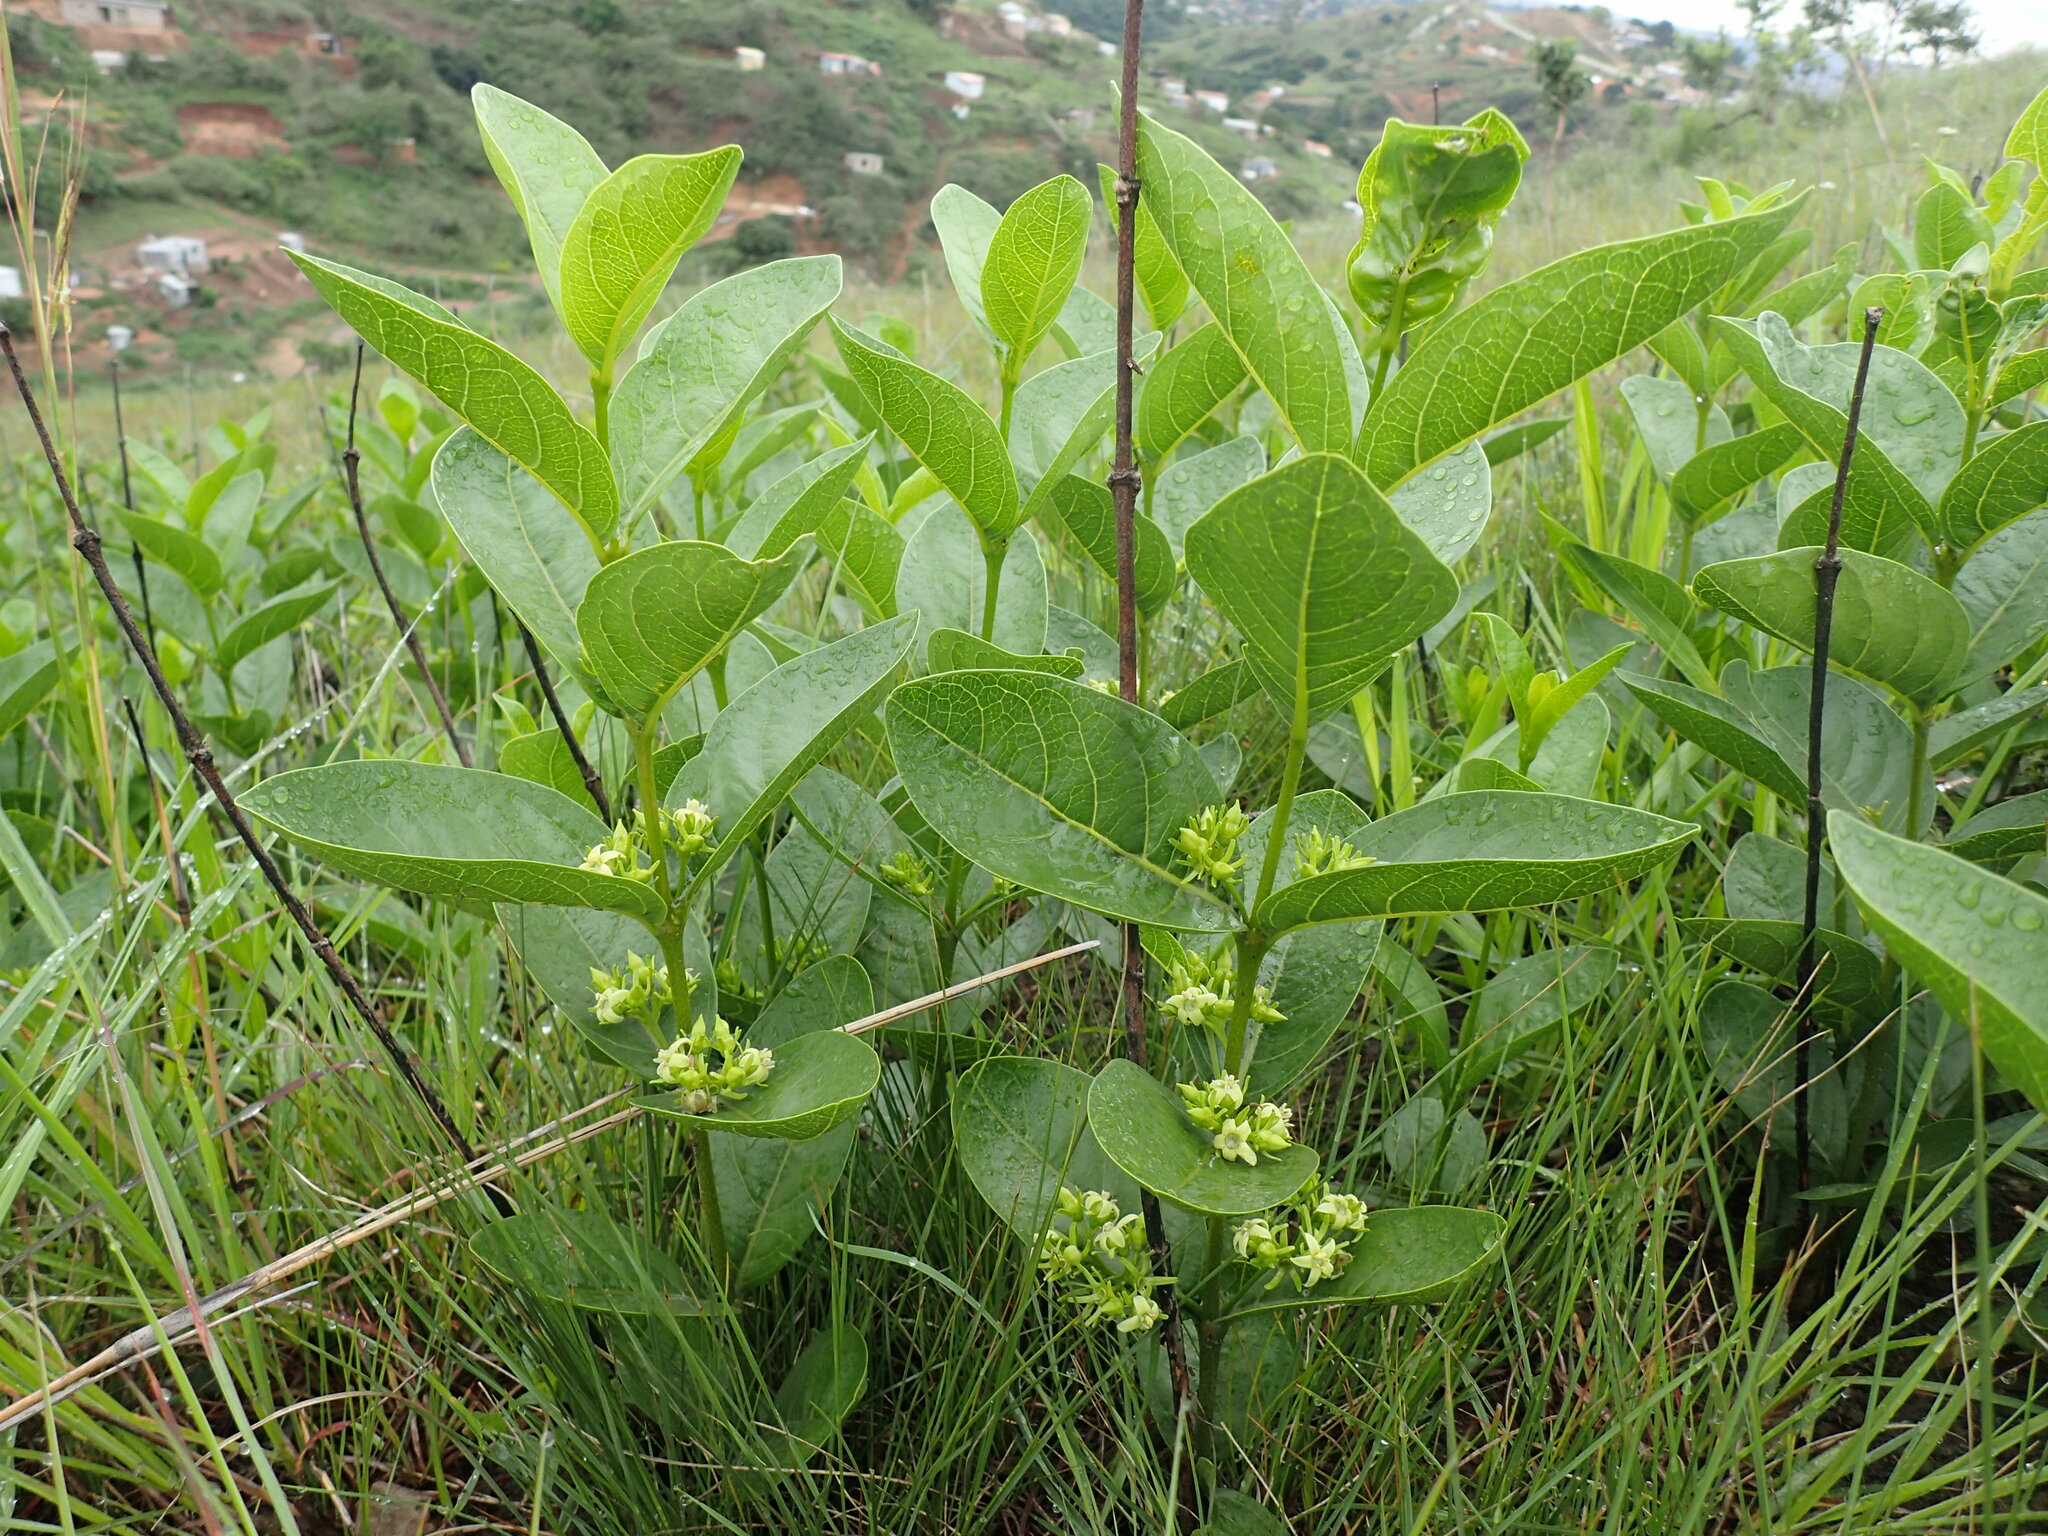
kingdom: Plantae
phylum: Tracheophyta
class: Magnoliopsida
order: Gentianales
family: Rubiaceae
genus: Vangueria
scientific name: Vangueria venosa
